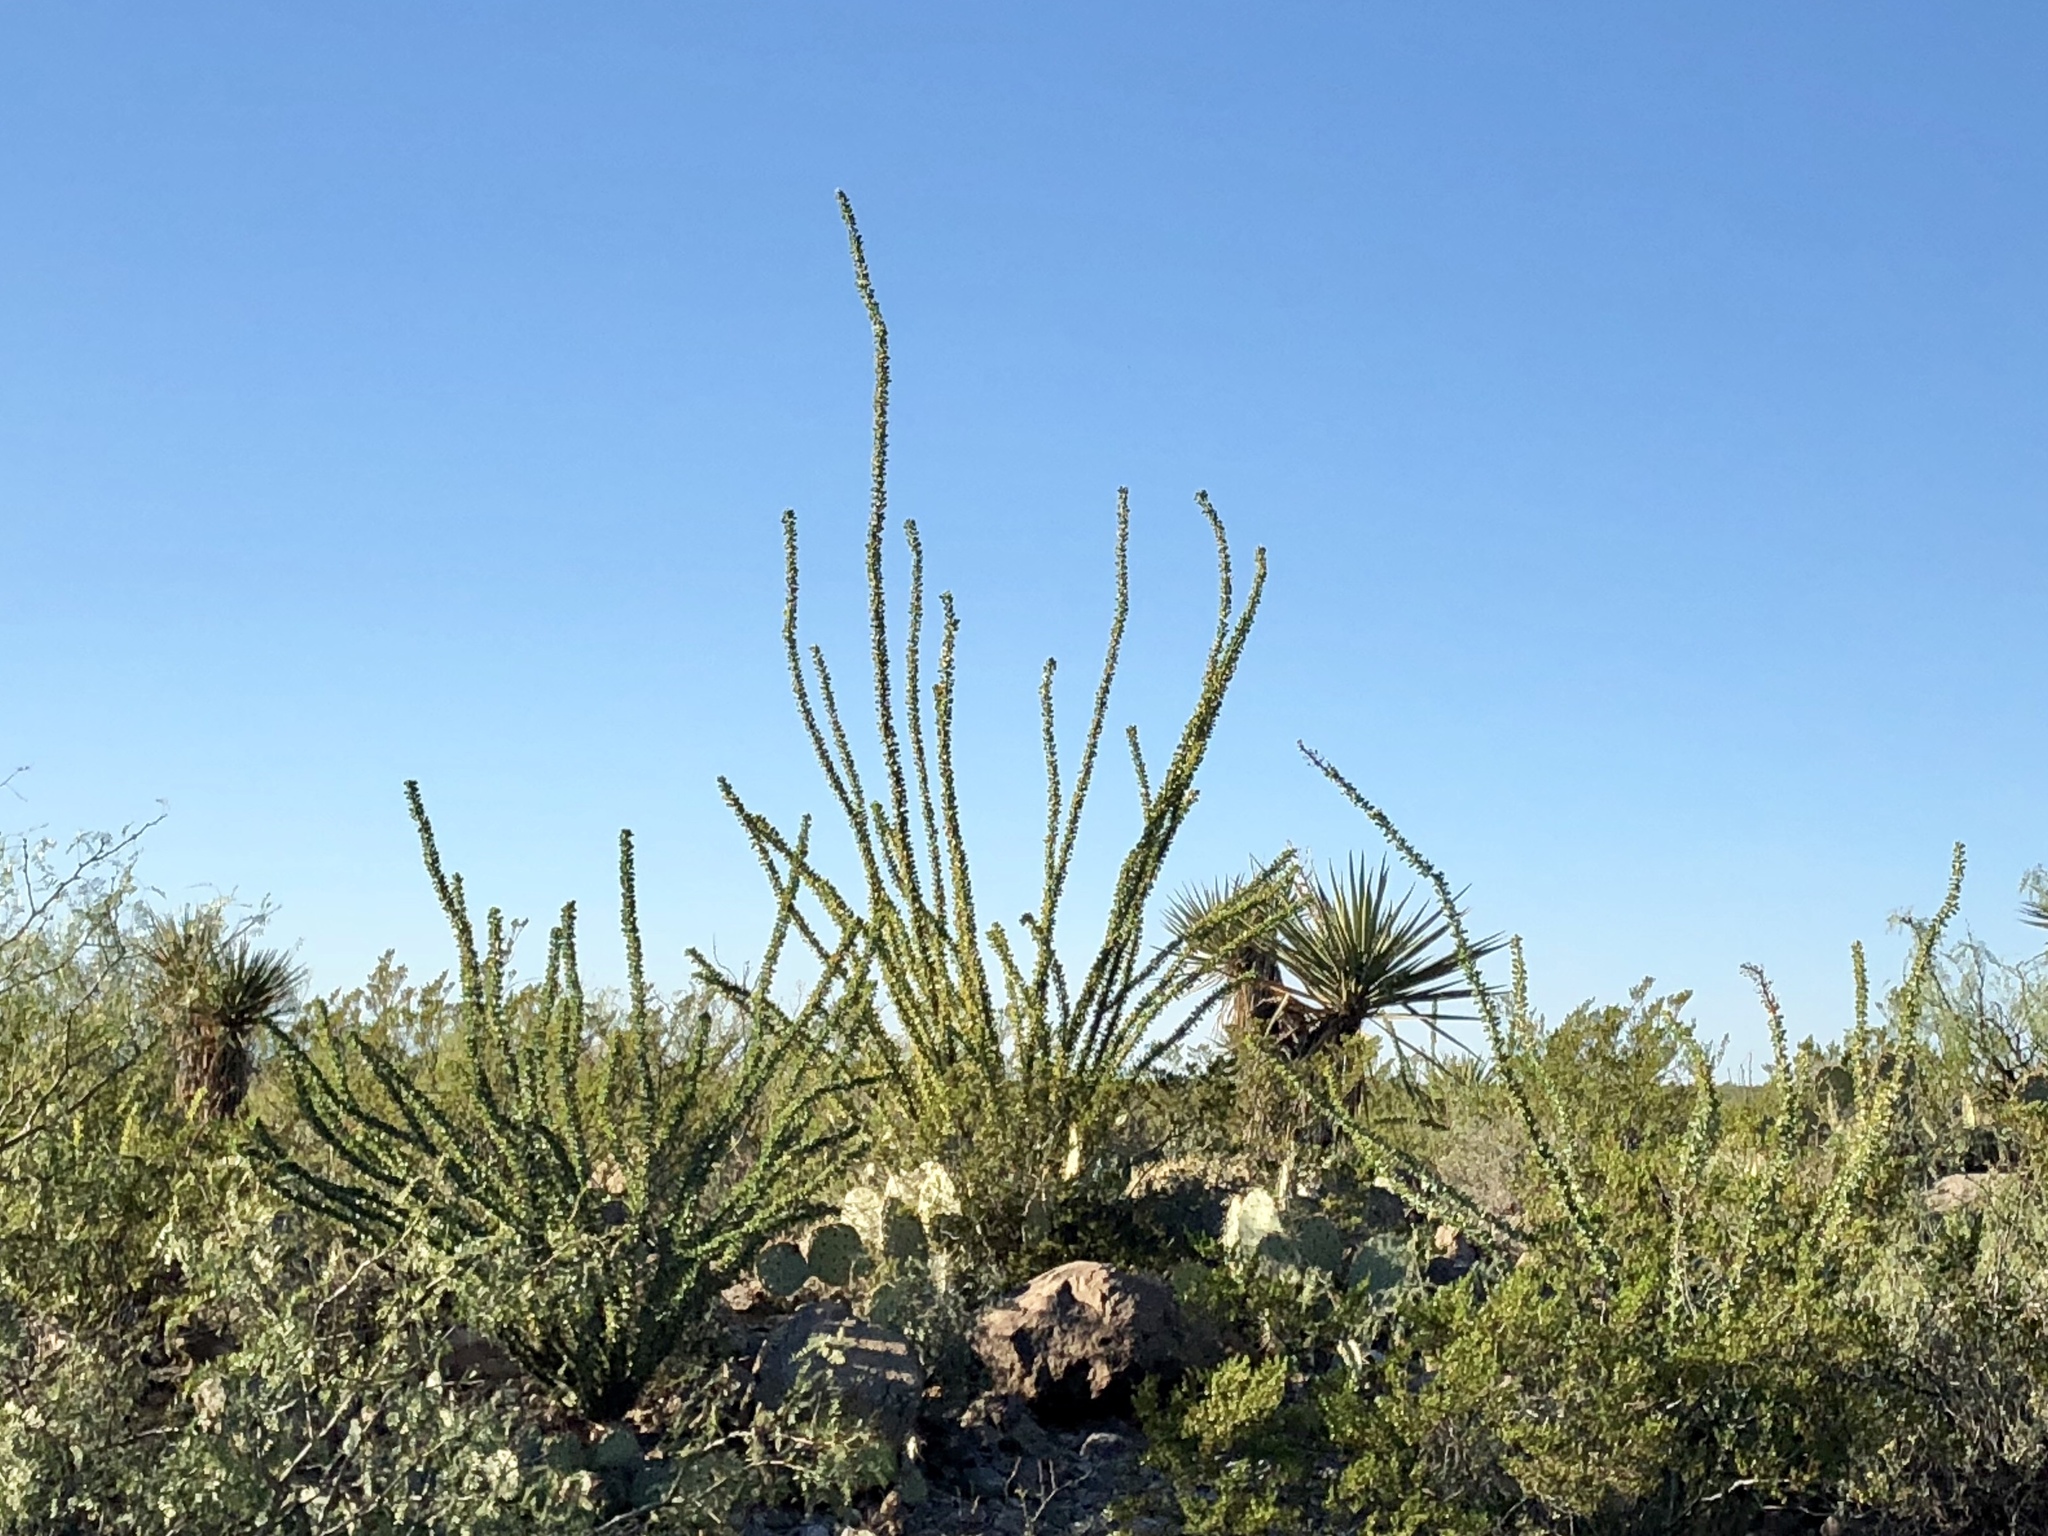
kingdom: Plantae
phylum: Tracheophyta
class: Magnoliopsida
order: Ericales
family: Fouquieriaceae
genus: Fouquieria
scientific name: Fouquieria splendens
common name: Vine-cactus
